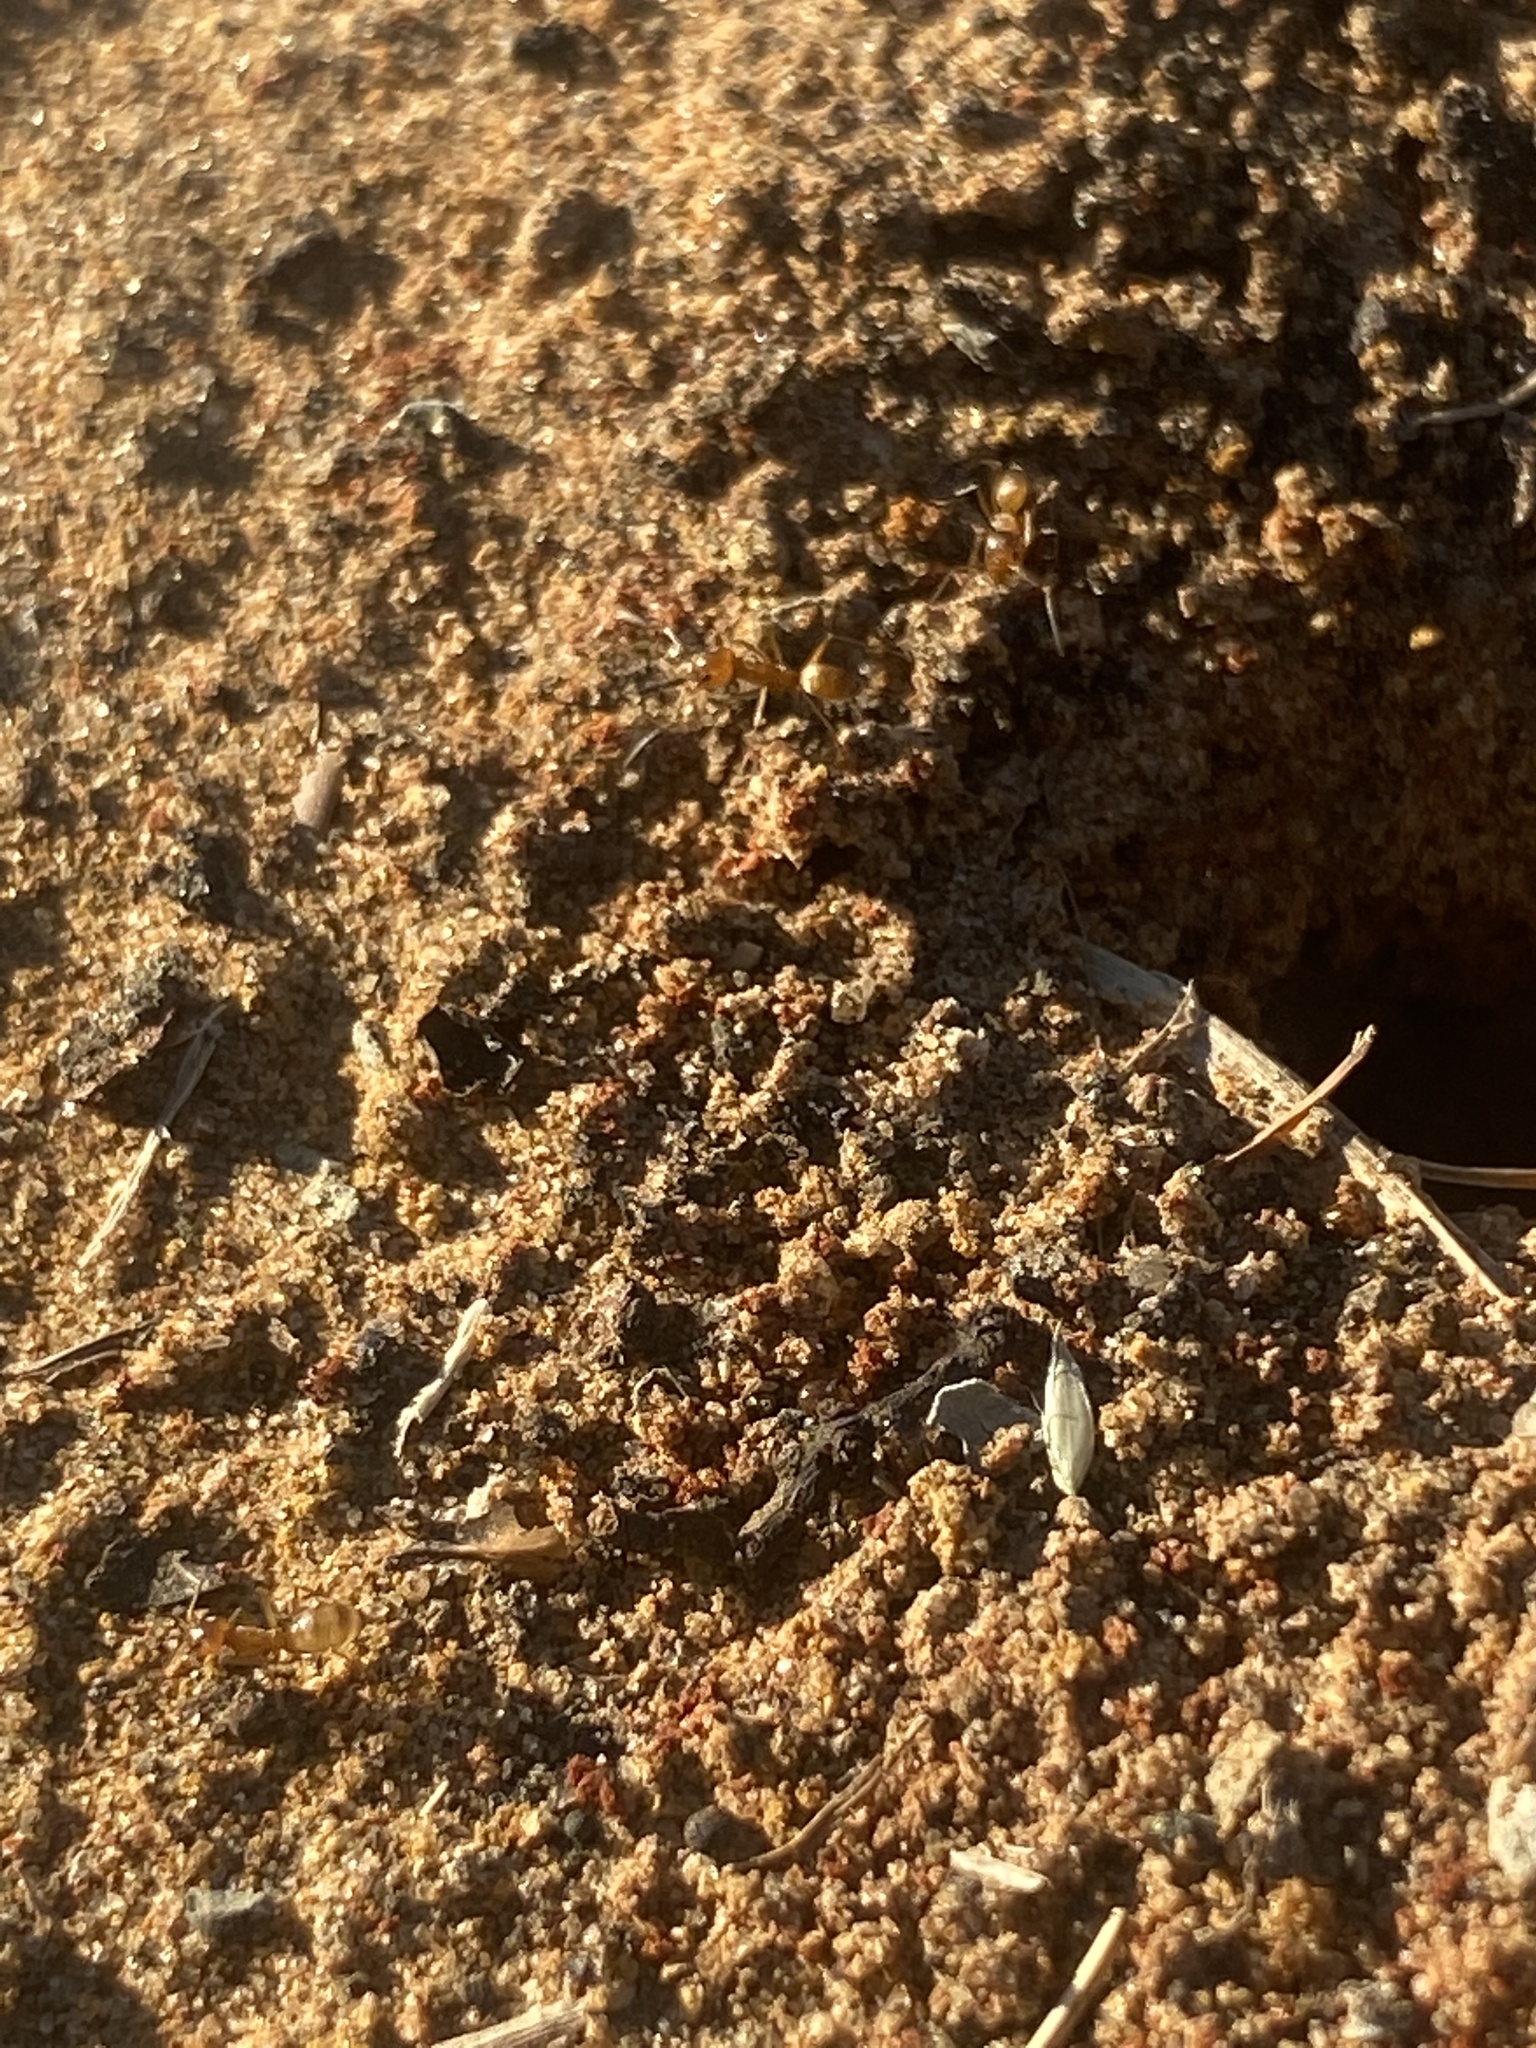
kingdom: Animalia
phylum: Arthropoda
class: Insecta
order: Hymenoptera
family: Formicidae
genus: Dorymyrmex
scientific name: Dorymyrmex flavus
